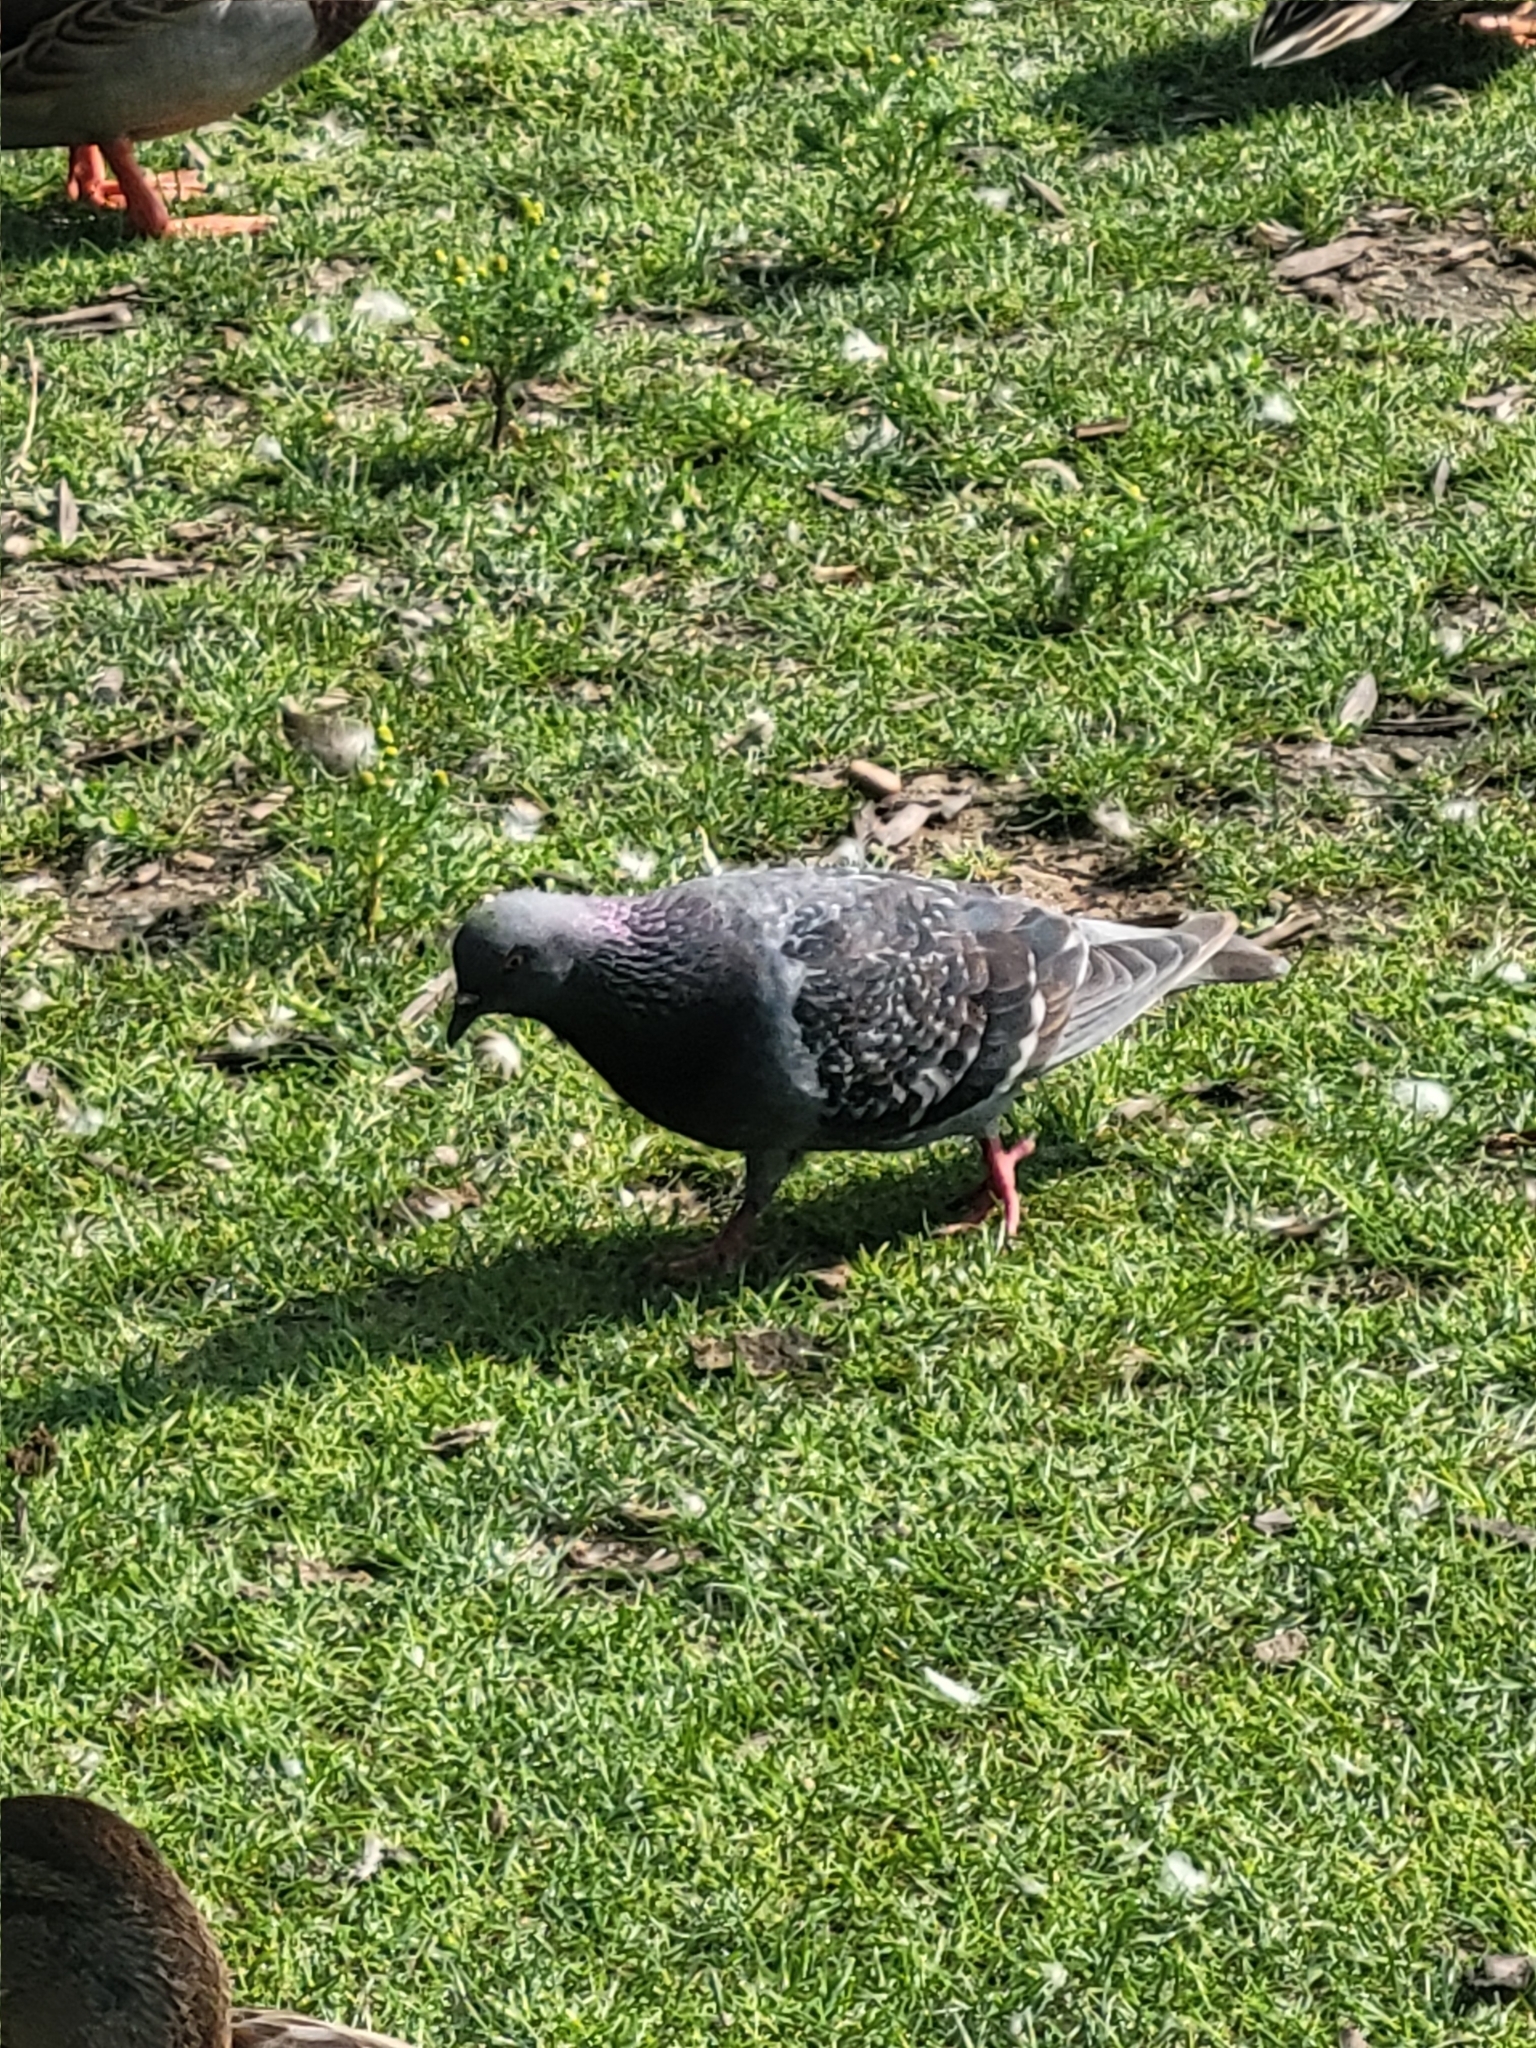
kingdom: Animalia
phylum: Chordata
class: Aves
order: Columbiformes
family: Columbidae
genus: Columba
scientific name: Columba livia
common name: Rock pigeon
